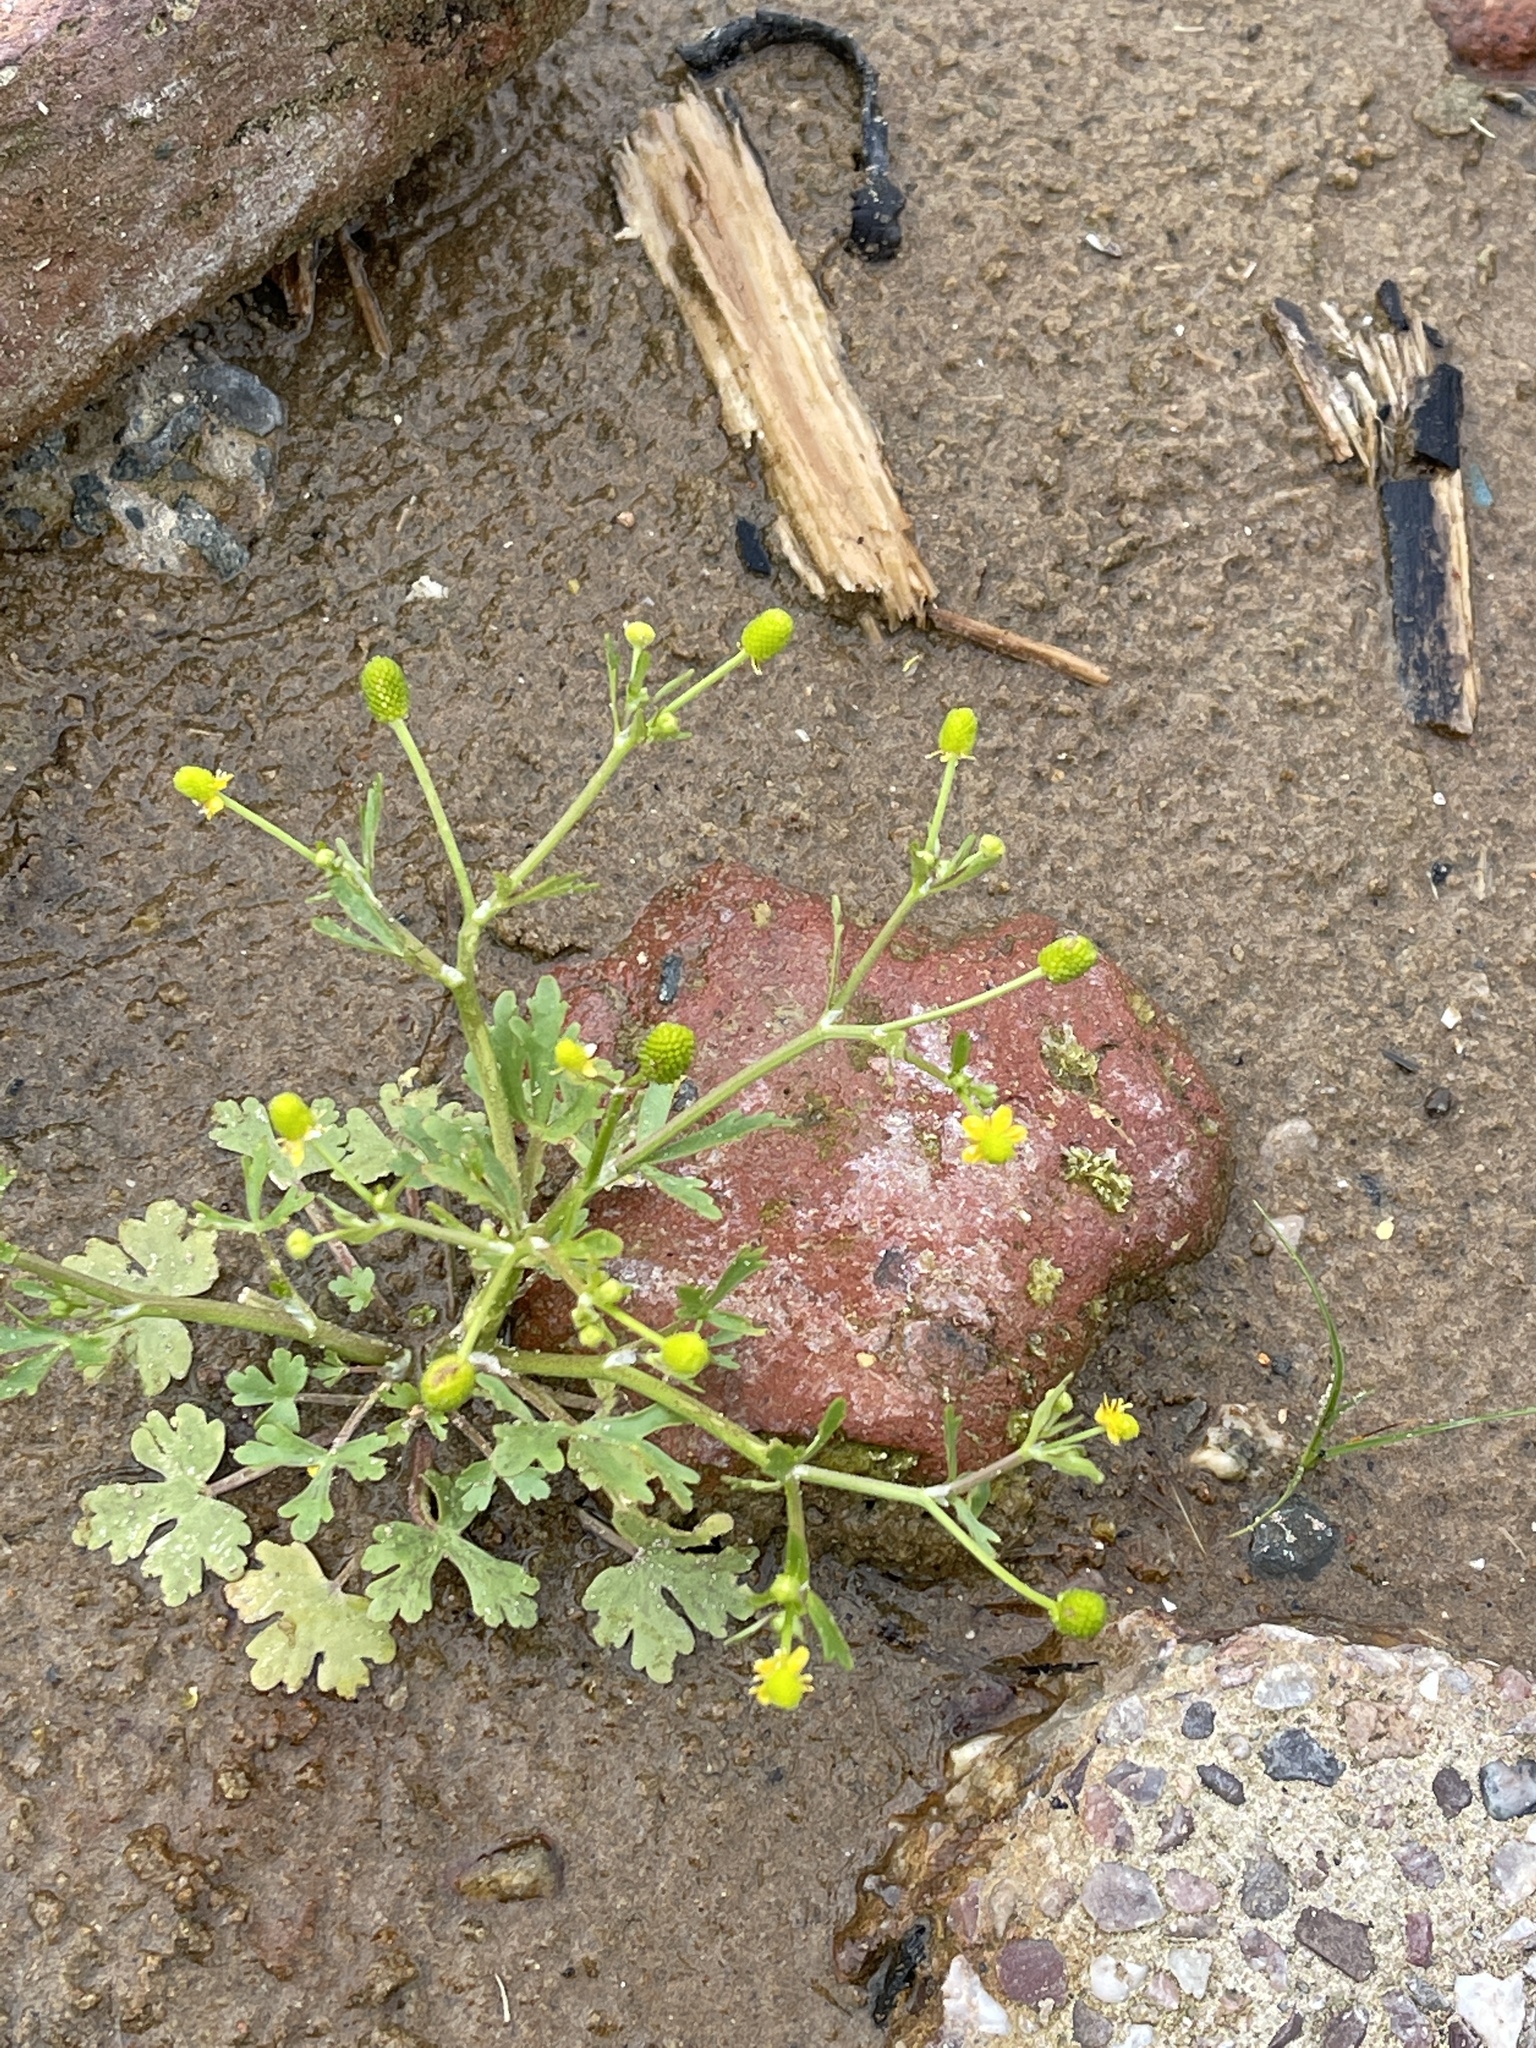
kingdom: Plantae
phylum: Tracheophyta
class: Magnoliopsida
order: Ranunculales
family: Ranunculaceae
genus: Ranunculus
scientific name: Ranunculus sceleratus
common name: Celery-leaved buttercup
